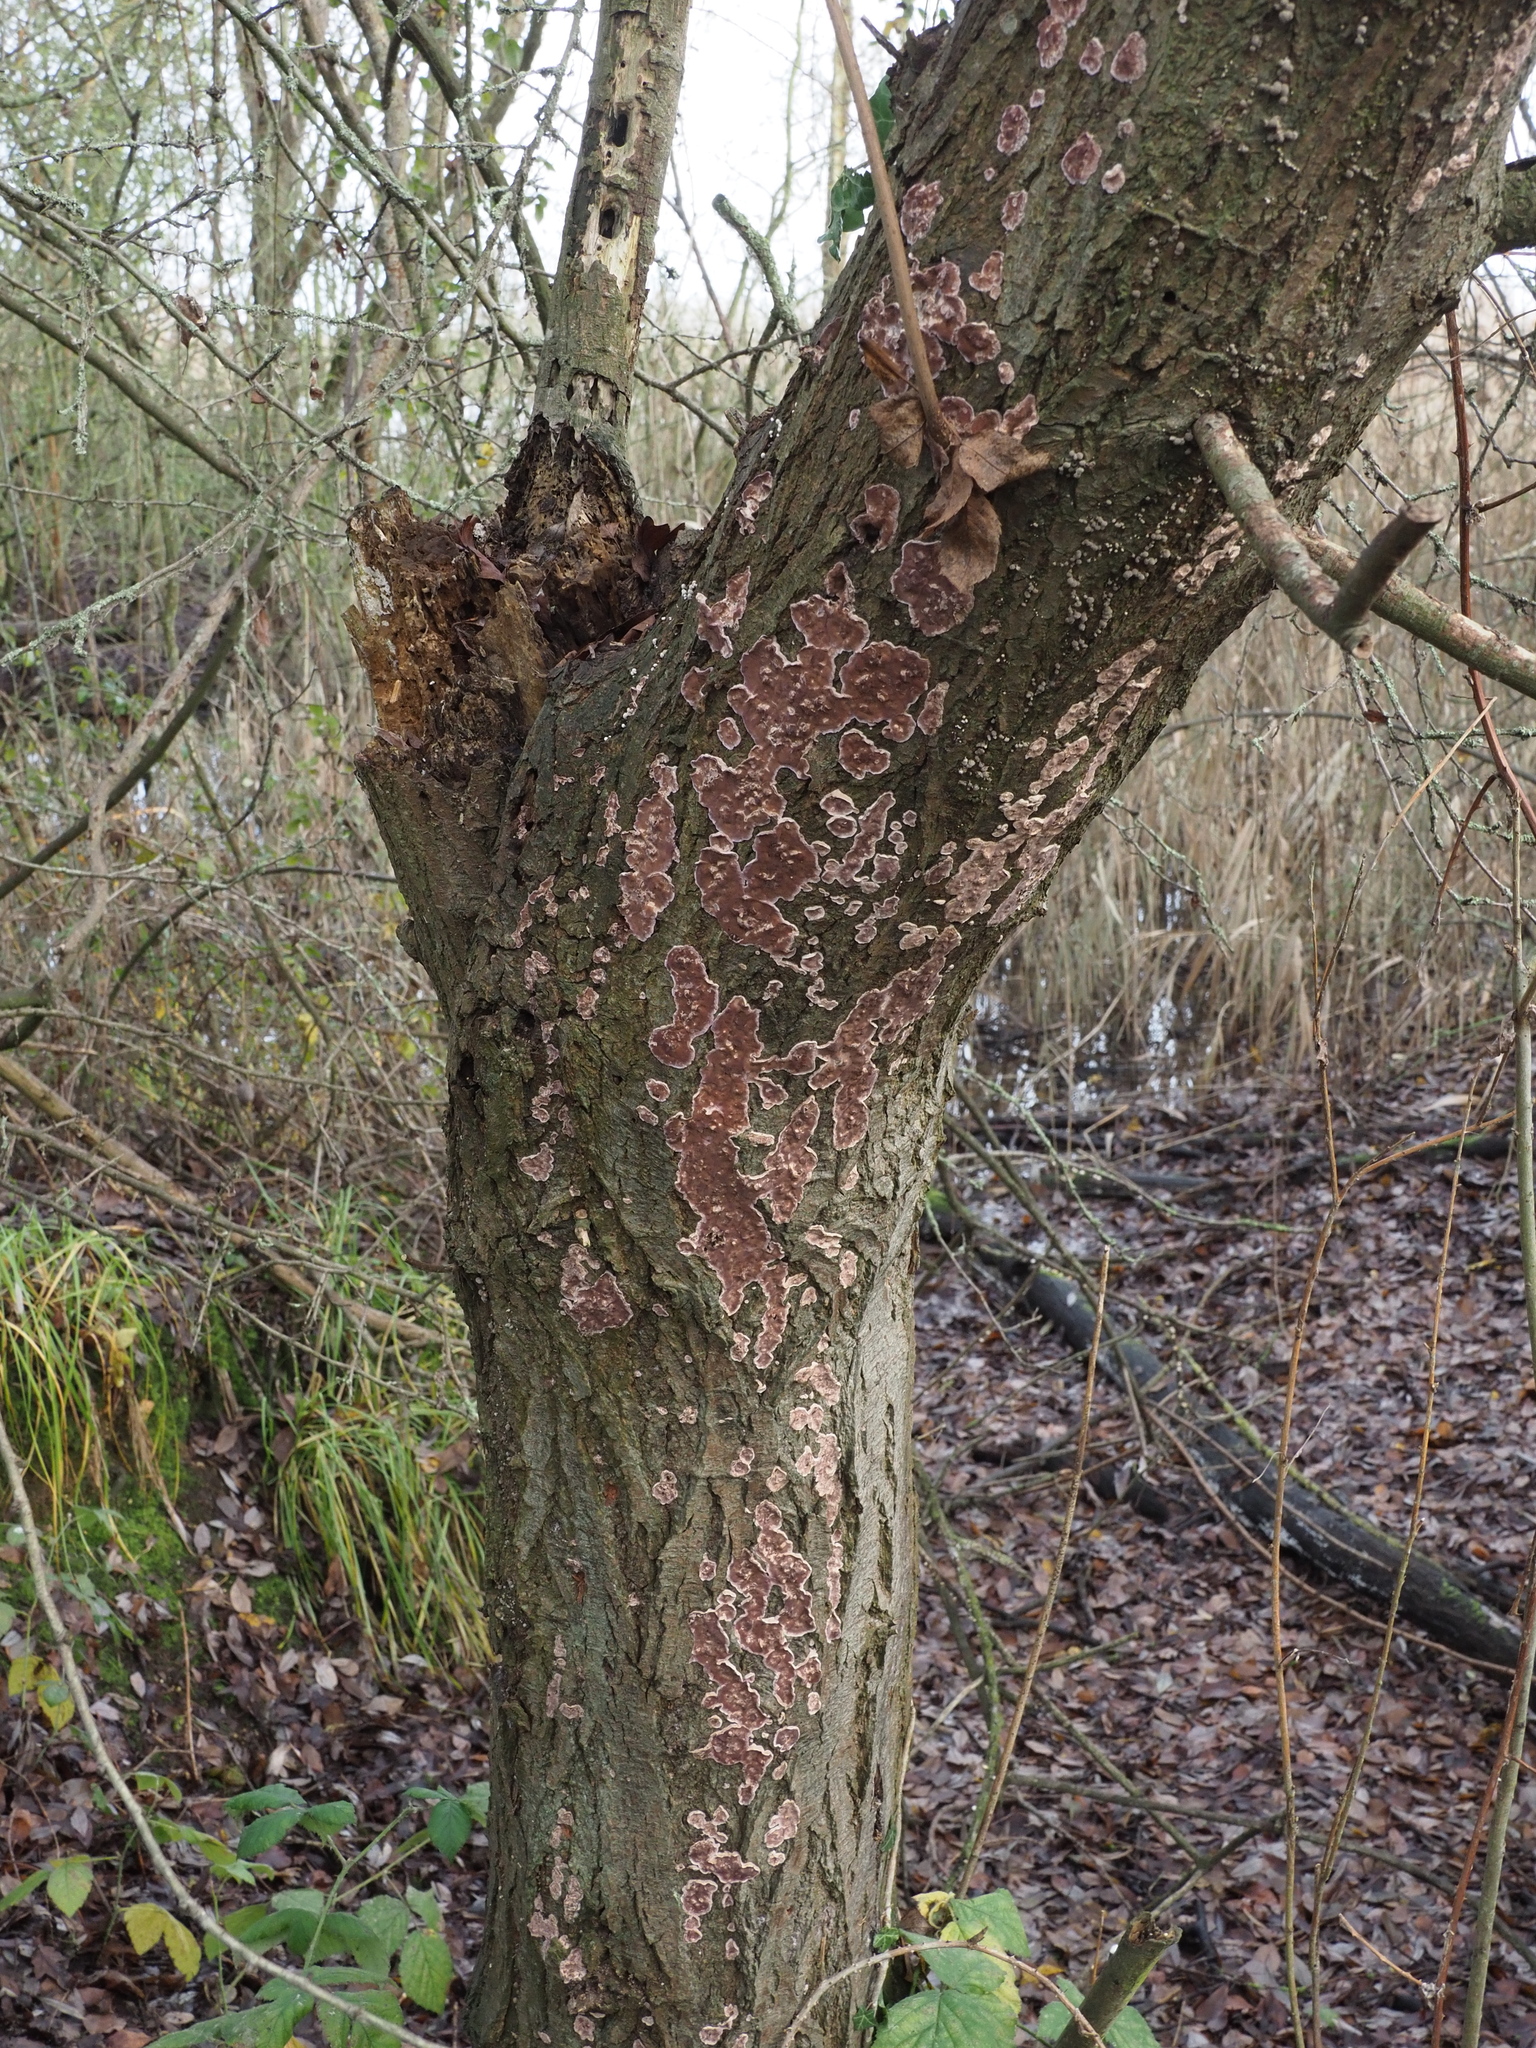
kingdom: Fungi
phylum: Basidiomycota
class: Agaricomycetes
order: Agaricales
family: Cyphellaceae
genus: Chondrostereum
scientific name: Chondrostereum purpureum
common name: Silver leaf disease
